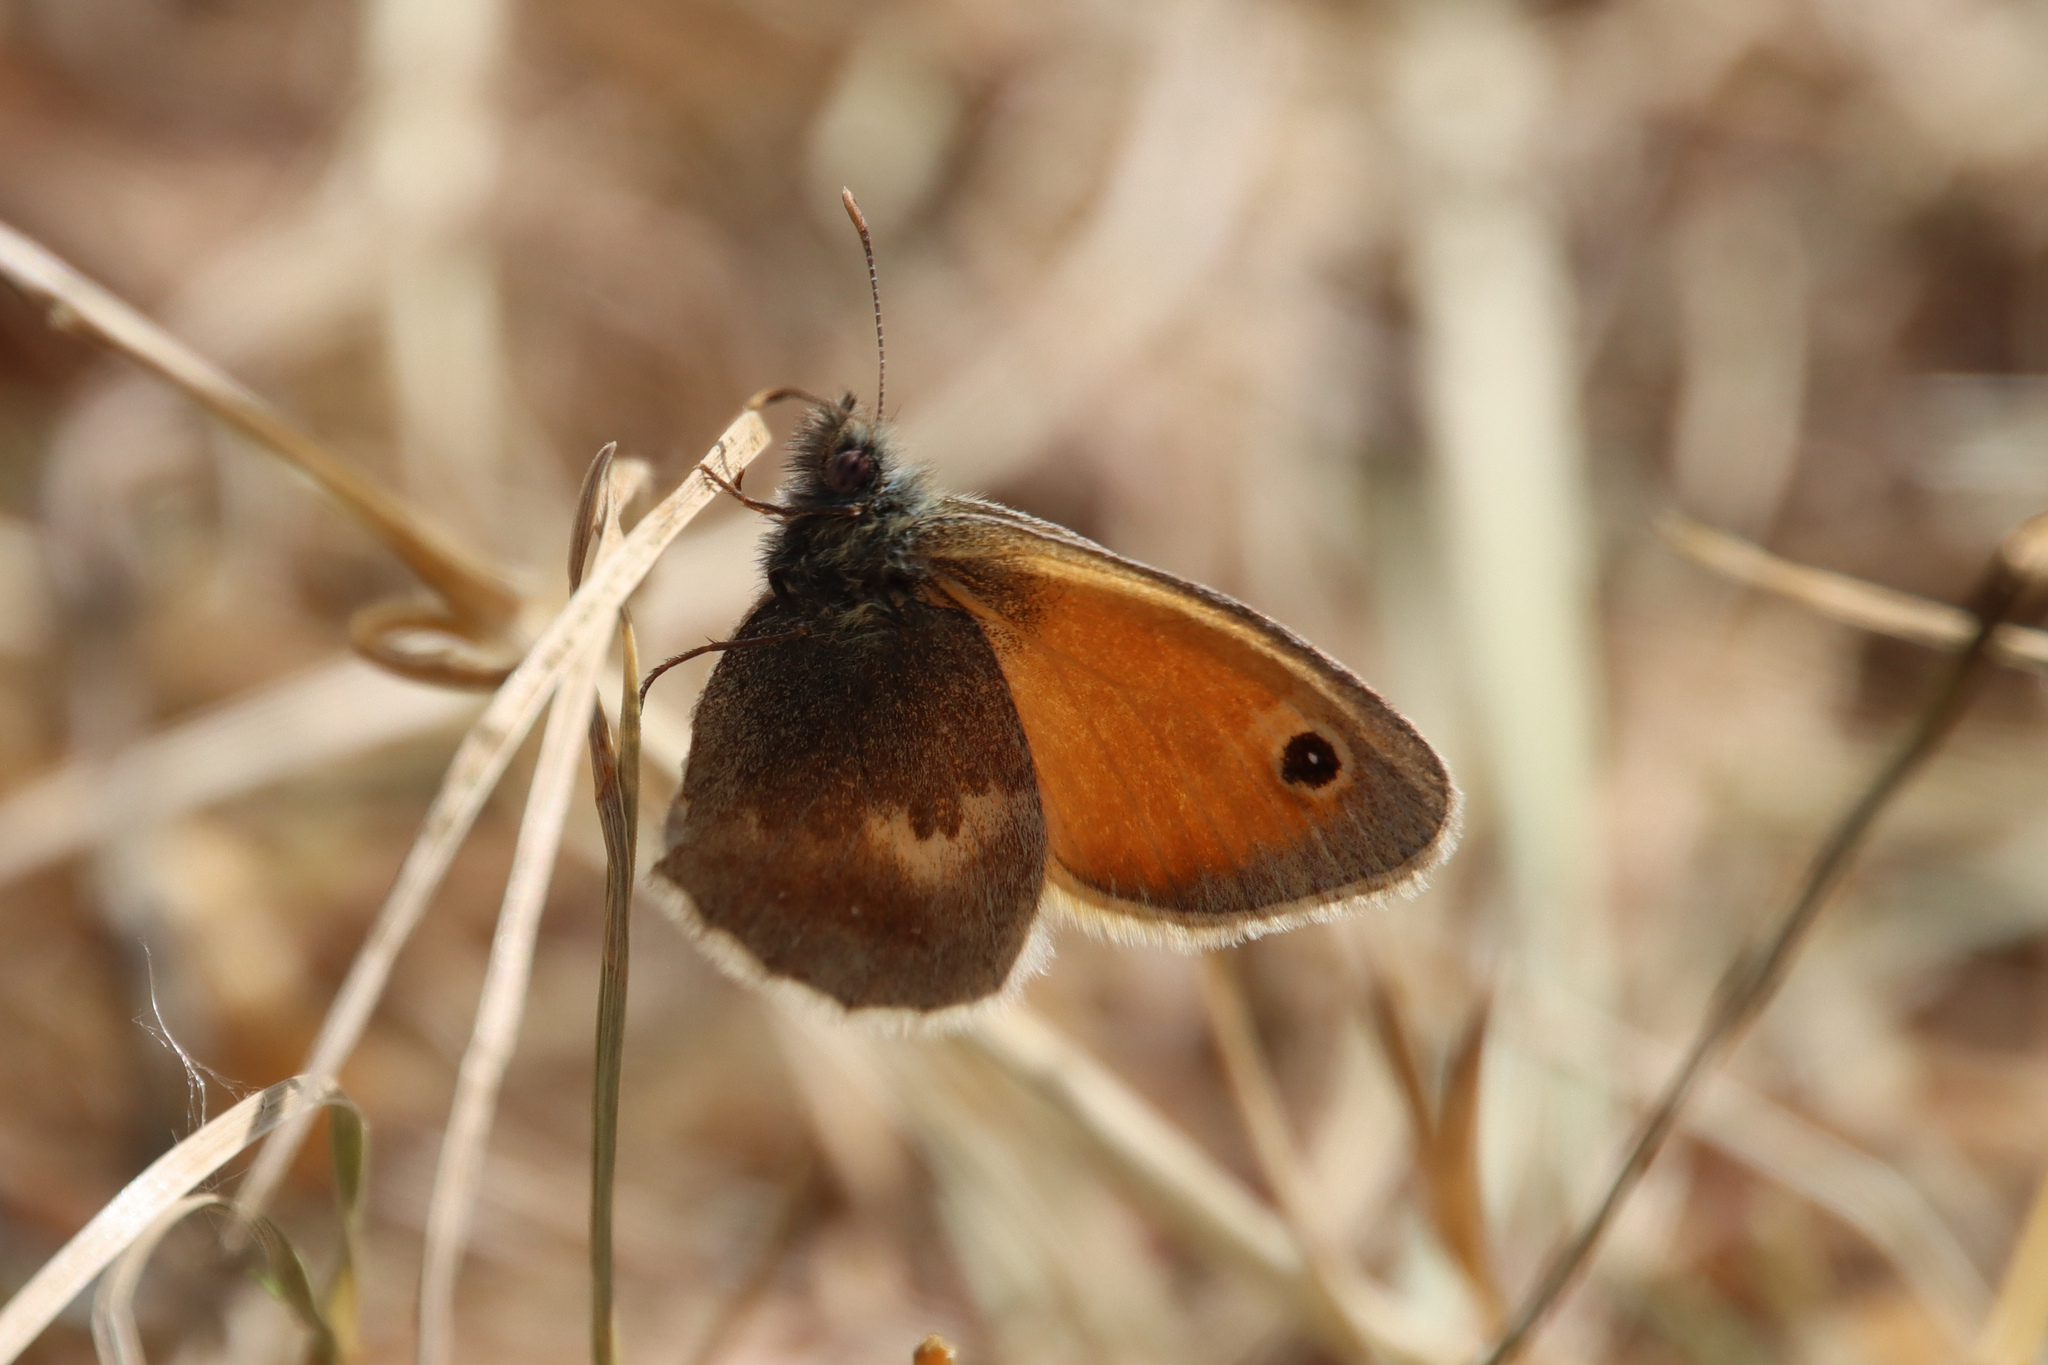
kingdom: Animalia
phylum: Arthropoda
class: Insecta
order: Lepidoptera
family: Nymphalidae
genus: Coenonympha
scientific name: Coenonympha pamphilus
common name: Small heath
